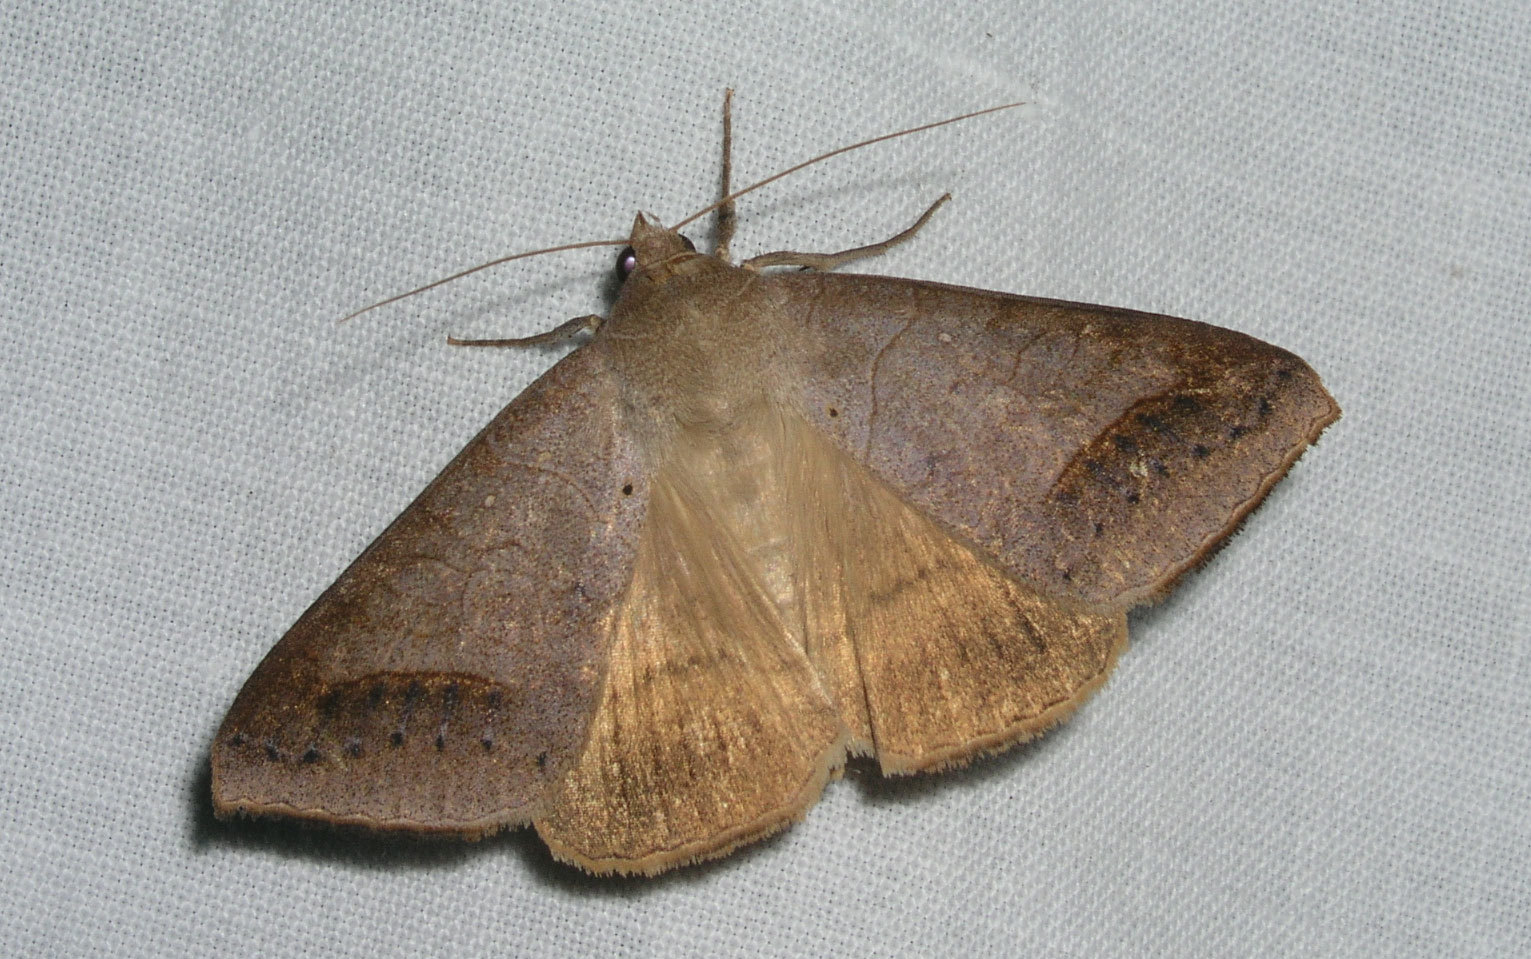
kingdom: Animalia
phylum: Arthropoda
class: Insecta
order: Lepidoptera
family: Erebidae
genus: Mocis
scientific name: Mocis marcida
